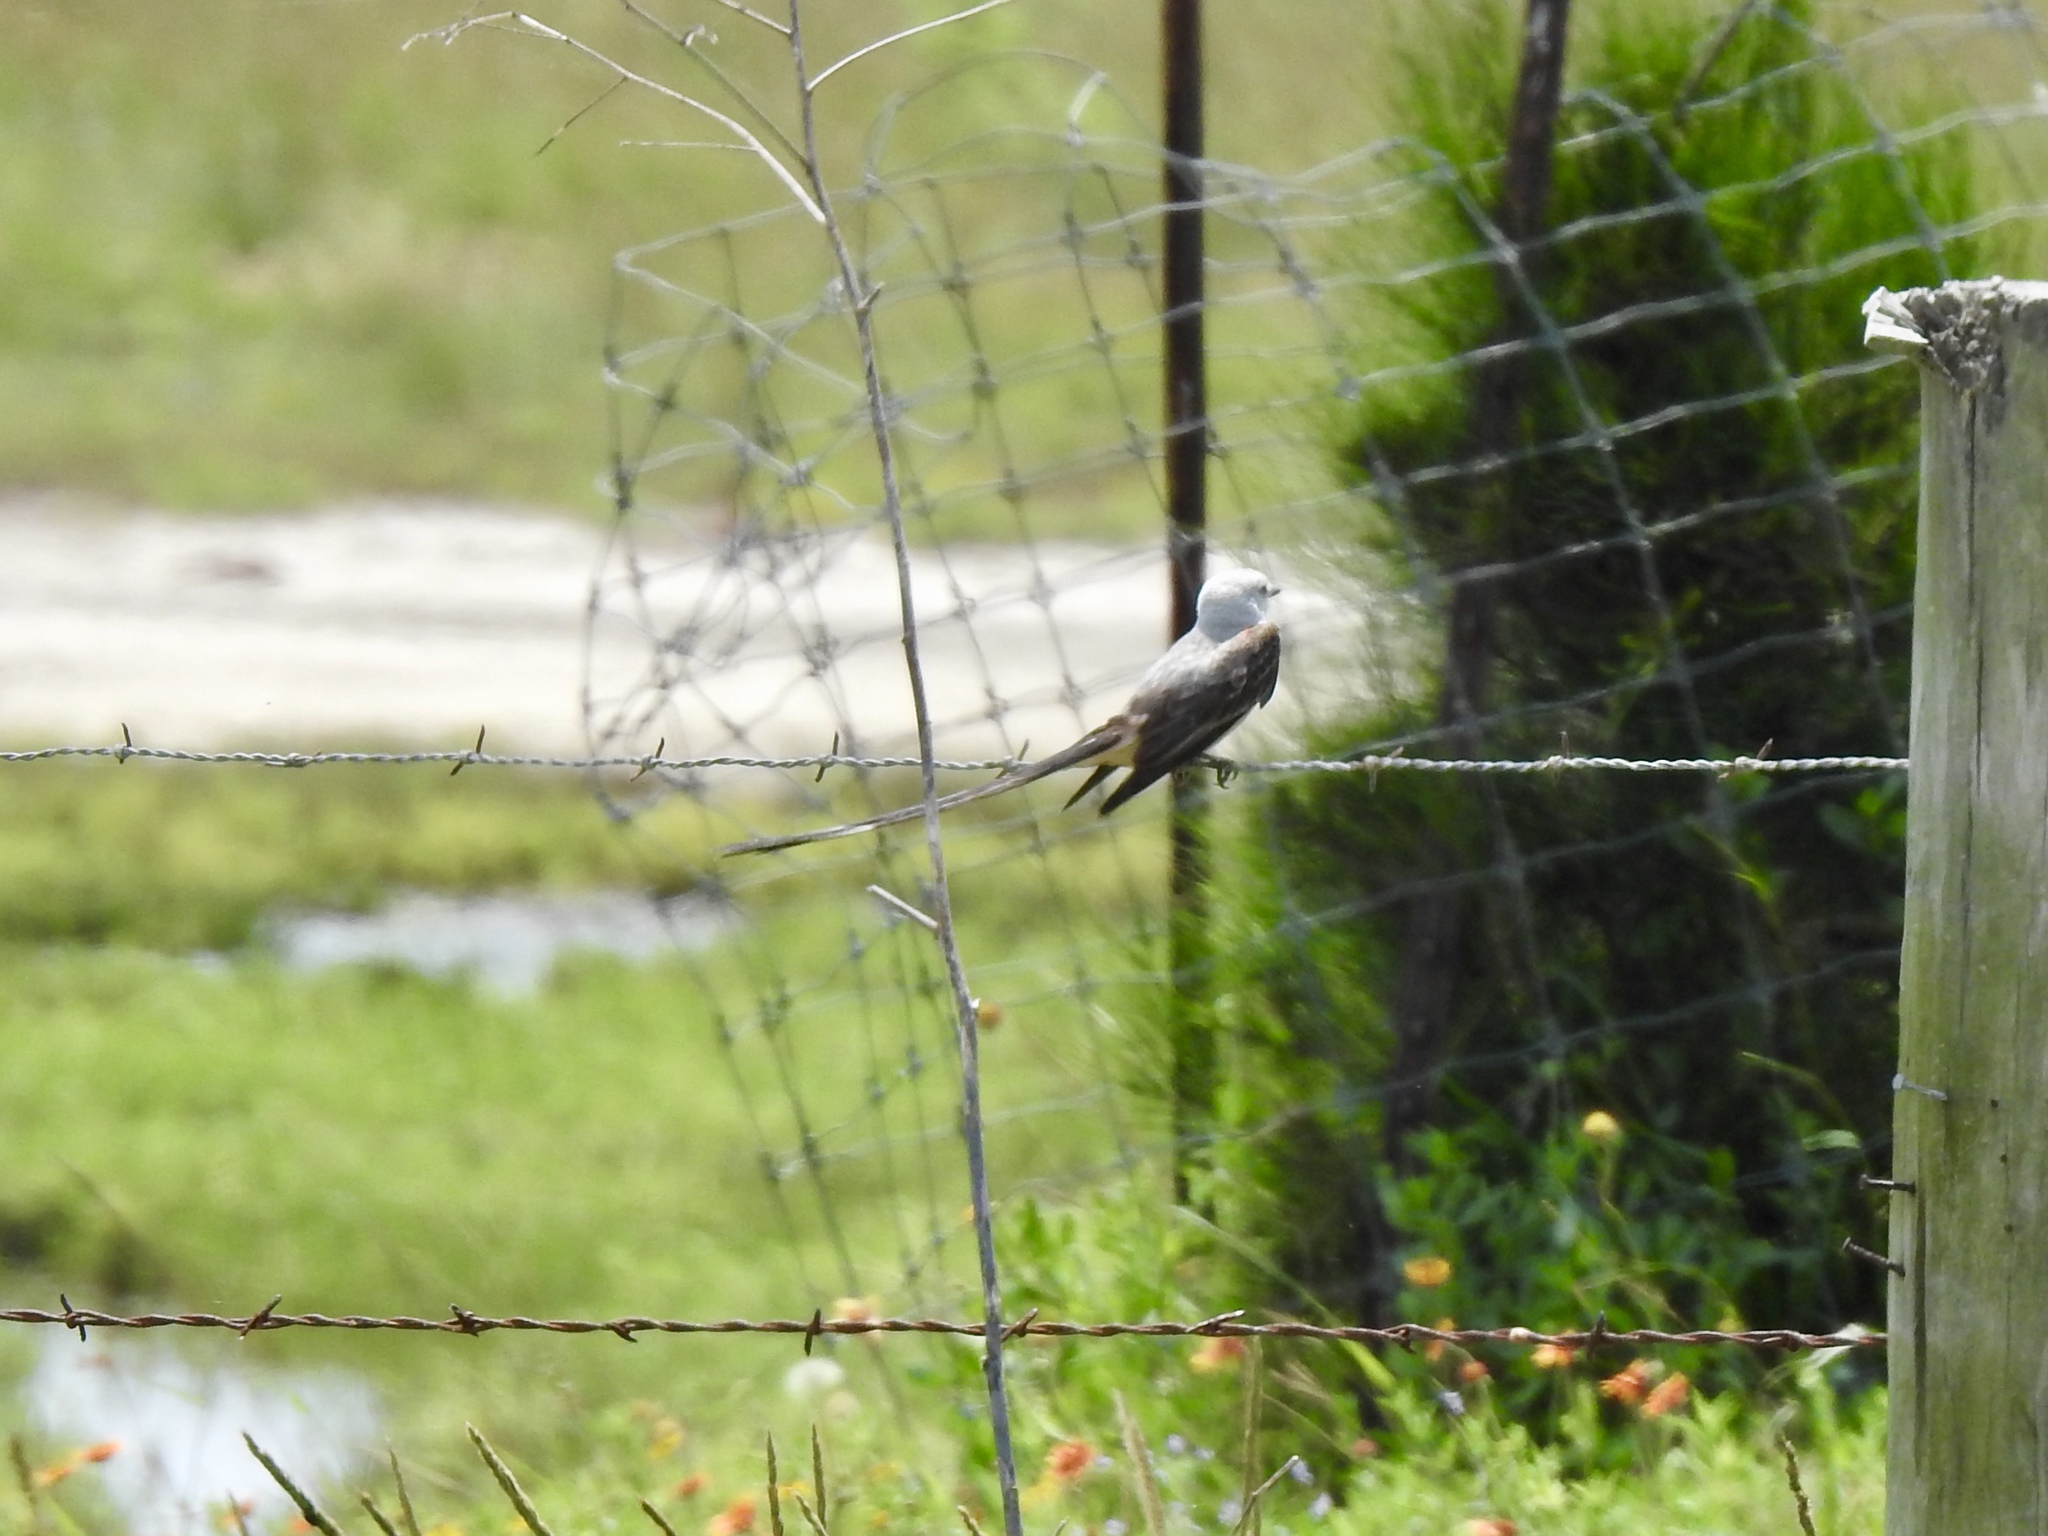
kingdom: Animalia
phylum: Chordata
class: Aves
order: Passeriformes
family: Tyrannidae
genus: Tyrannus
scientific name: Tyrannus forficatus
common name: Scissor-tailed flycatcher
